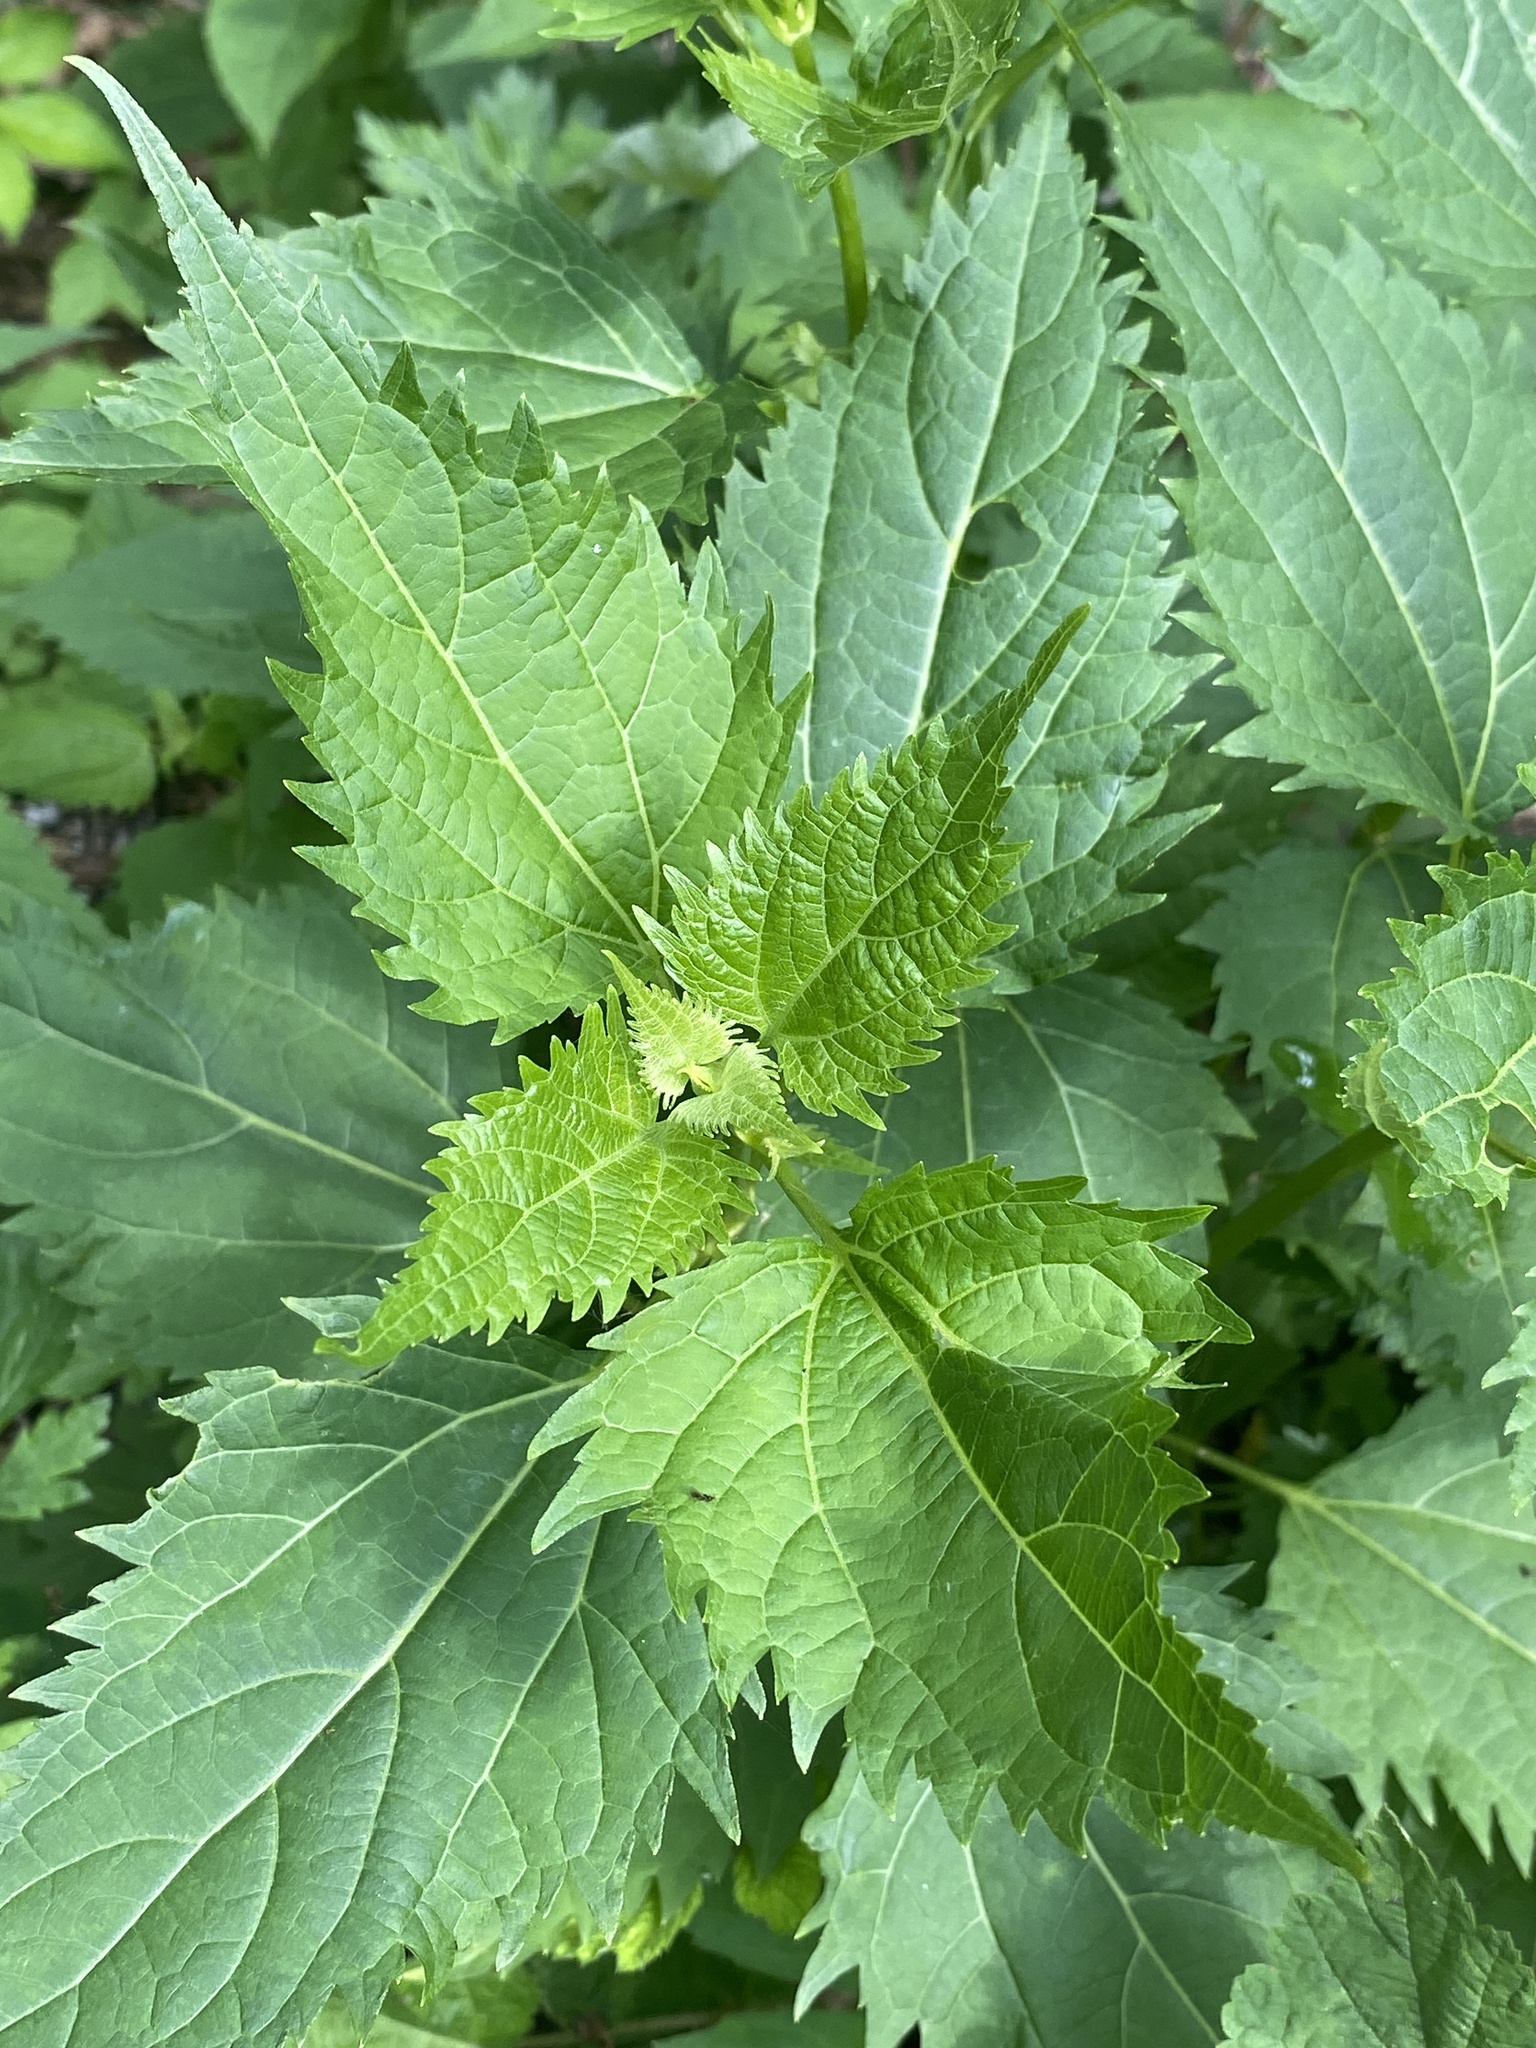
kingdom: Plantae
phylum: Tracheophyta
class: Magnoliopsida
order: Asterales
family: Asteraceae
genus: Ageratina
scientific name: Ageratina altissima
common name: White snakeroot
